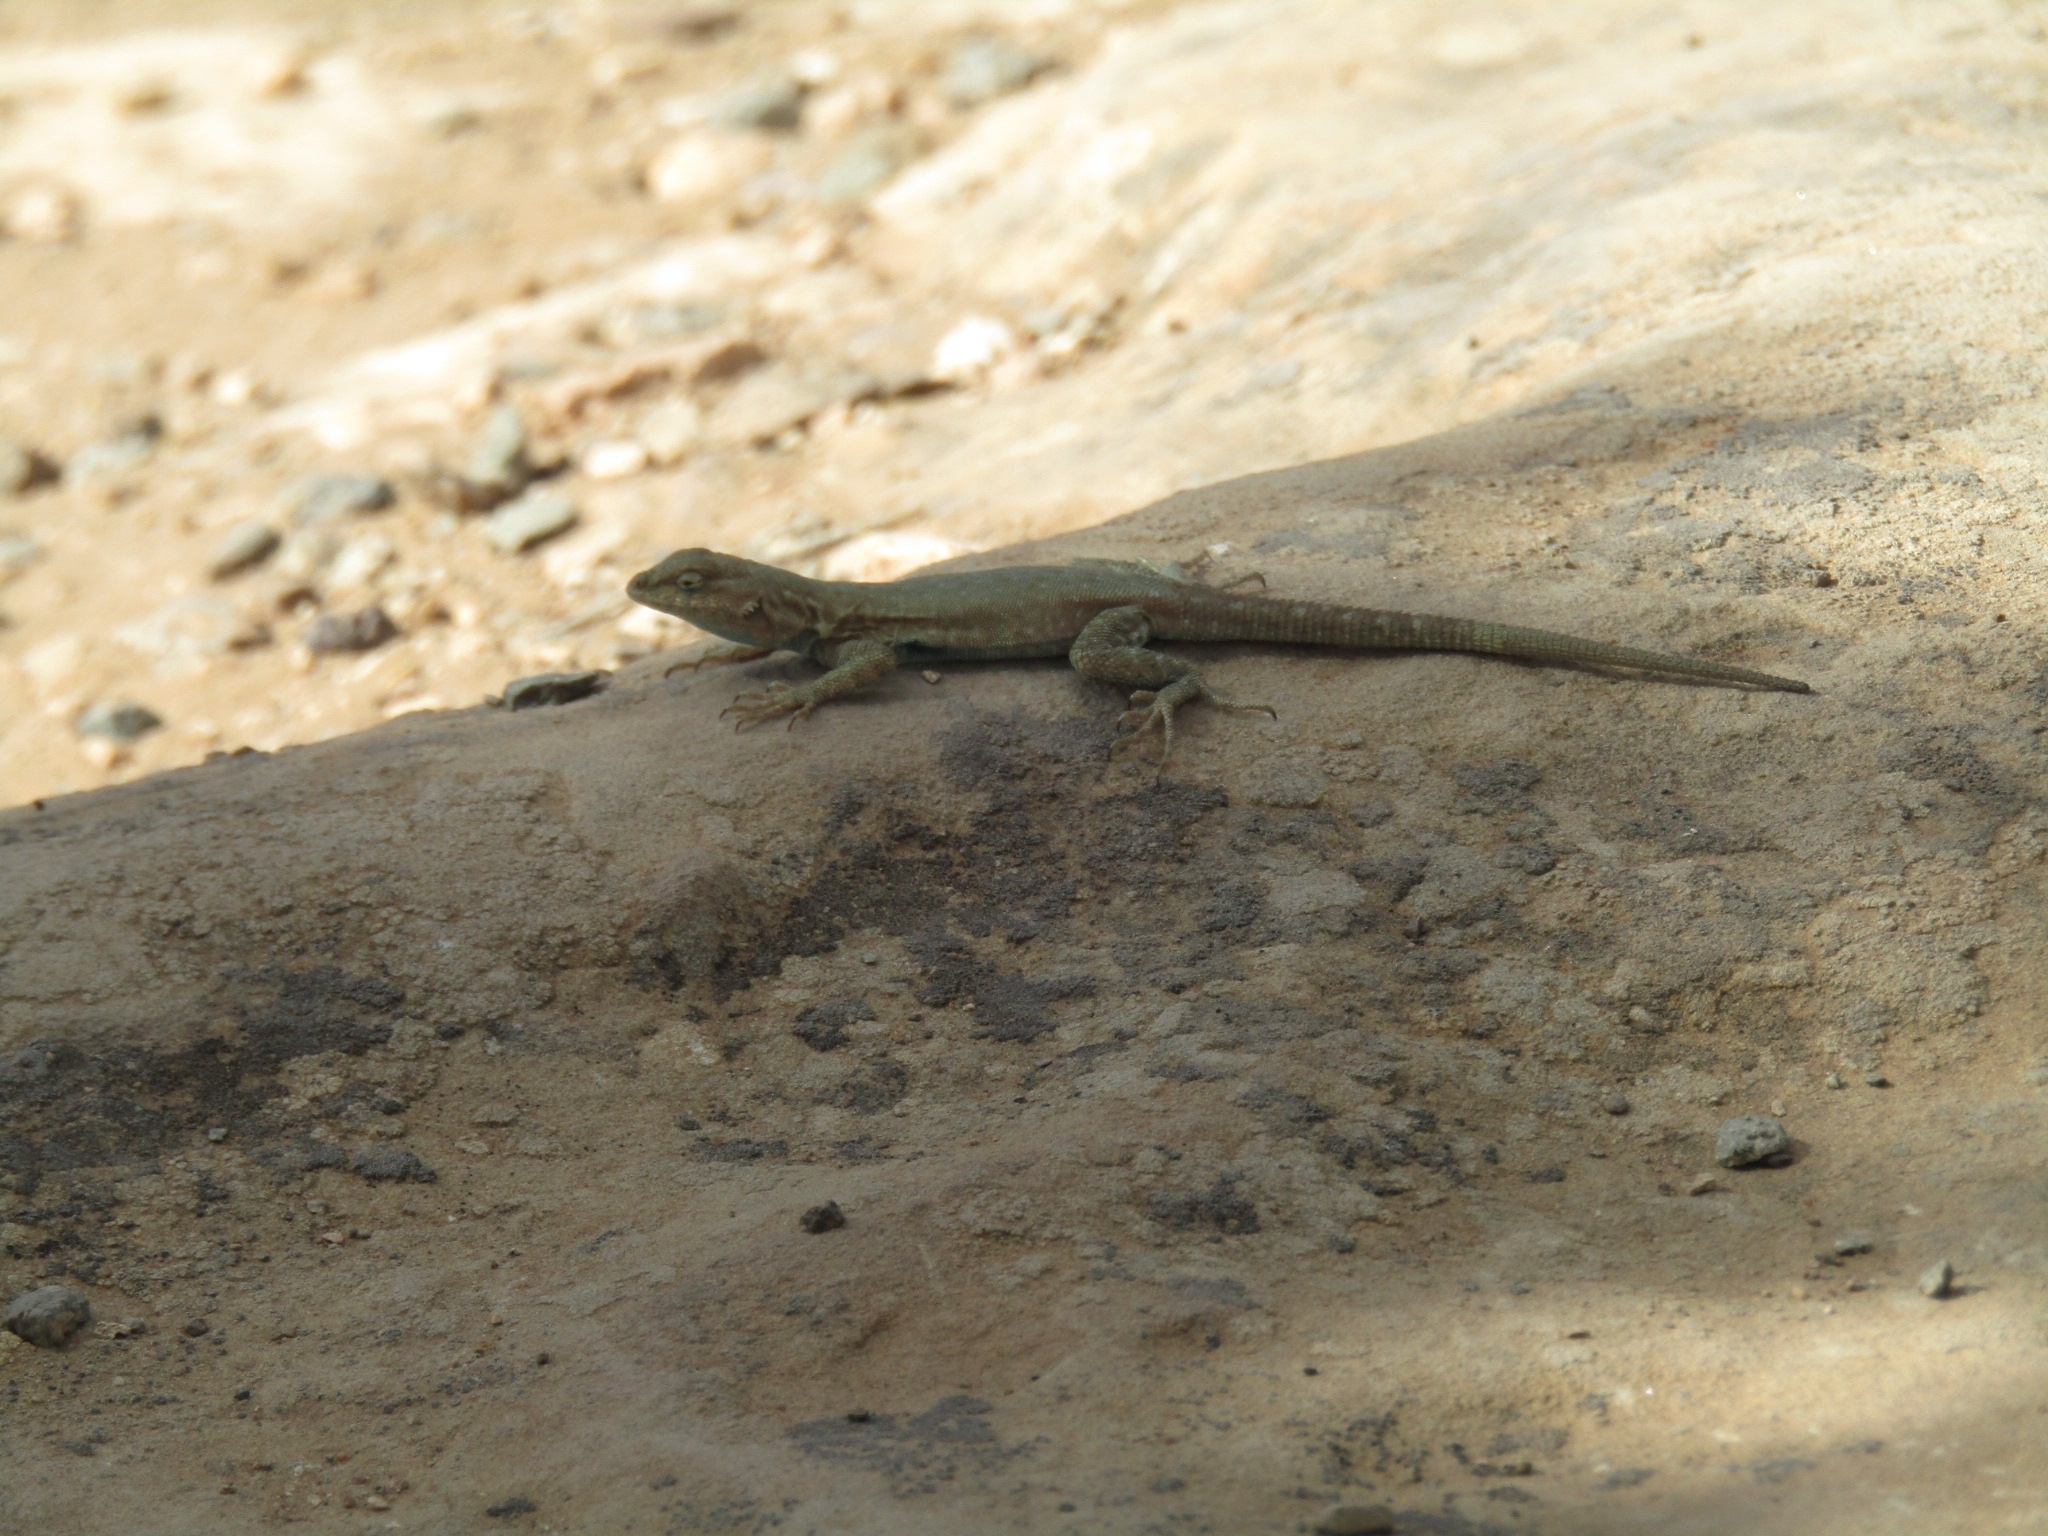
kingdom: Animalia
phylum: Chordata
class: Squamata
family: Phrynosomatidae
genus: Uta
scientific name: Uta stansburiana
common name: Side-blotched lizard
